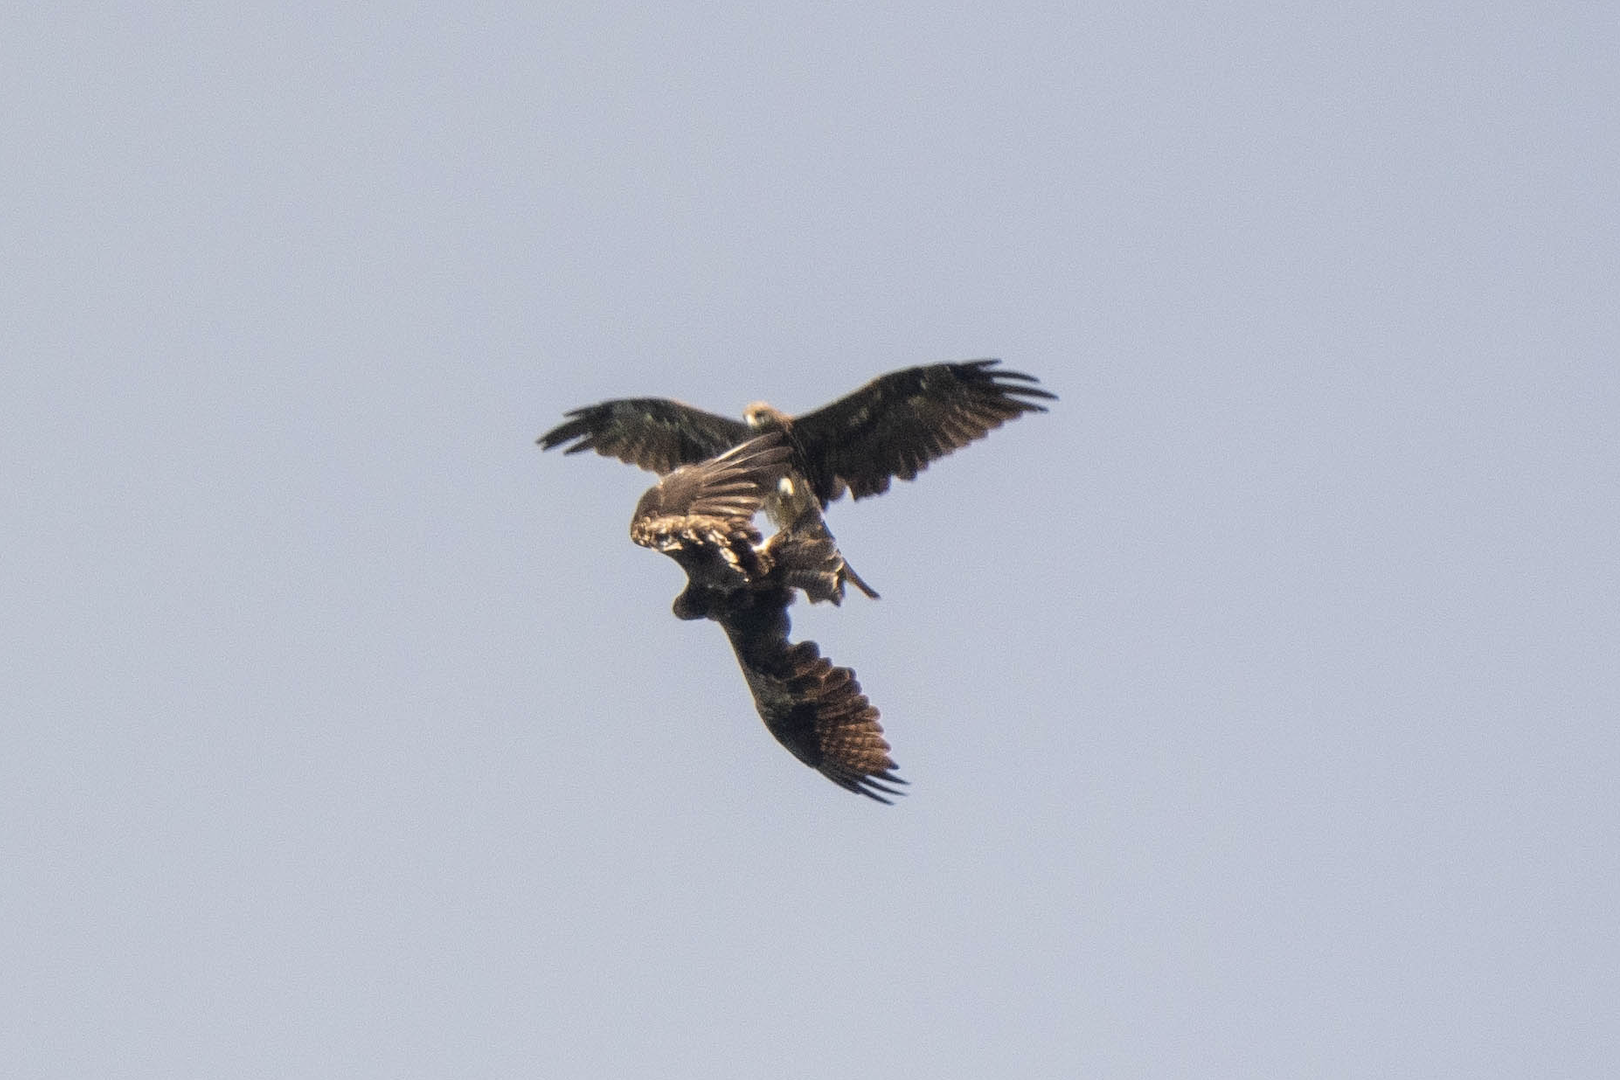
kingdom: Animalia
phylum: Chordata
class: Aves
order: Accipitriformes
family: Accipitridae
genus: Milvus
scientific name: Milvus migrans
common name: Black kite
